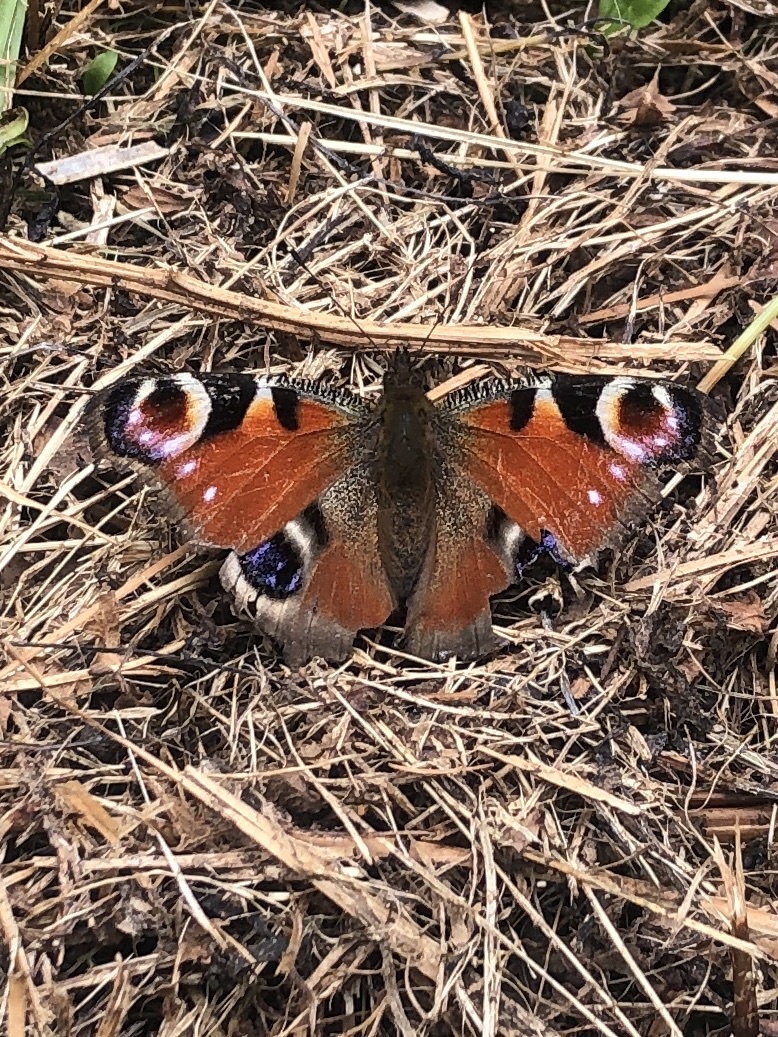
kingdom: Animalia
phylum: Arthropoda
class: Insecta
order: Lepidoptera
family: Nymphalidae
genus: Aglais
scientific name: Aglais io
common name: Peacock
